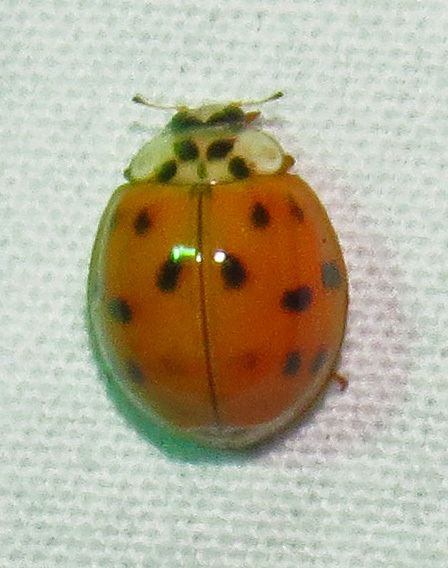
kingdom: Animalia
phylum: Arthropoda
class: Insecta
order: Coleoptera
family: Coccinellidae
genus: Harmonia
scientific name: Harmonia axyridis
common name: Harlequin ladybird
